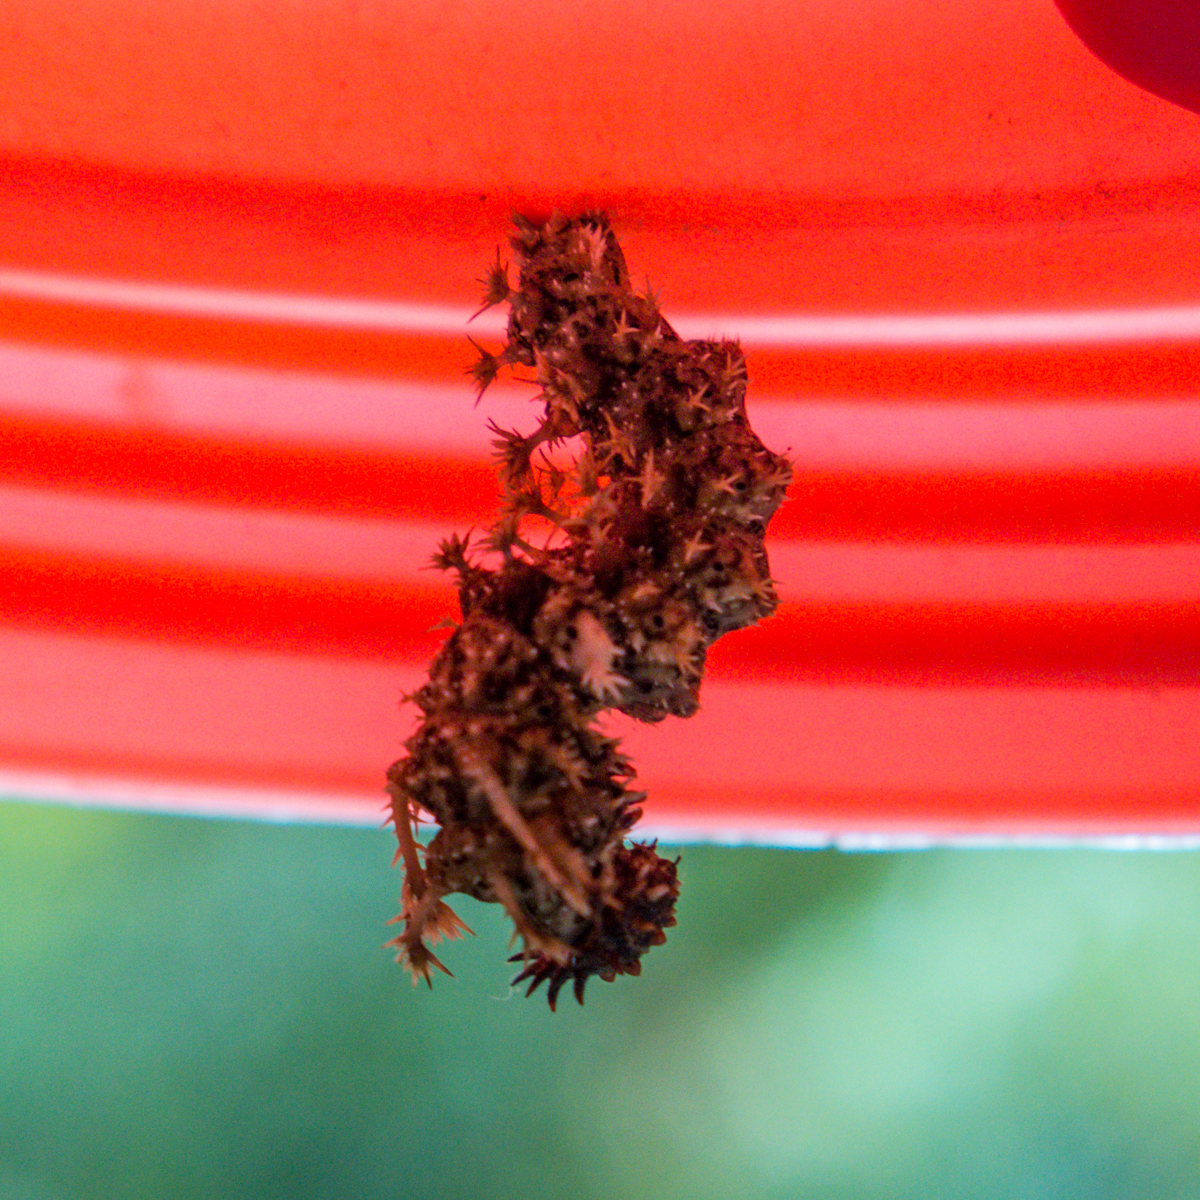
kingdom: Animalia
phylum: Arthropoda
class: Insecta
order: Lepidoptera
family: Nymphalidae
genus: Limenitis
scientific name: Limenitis Moduza procris
